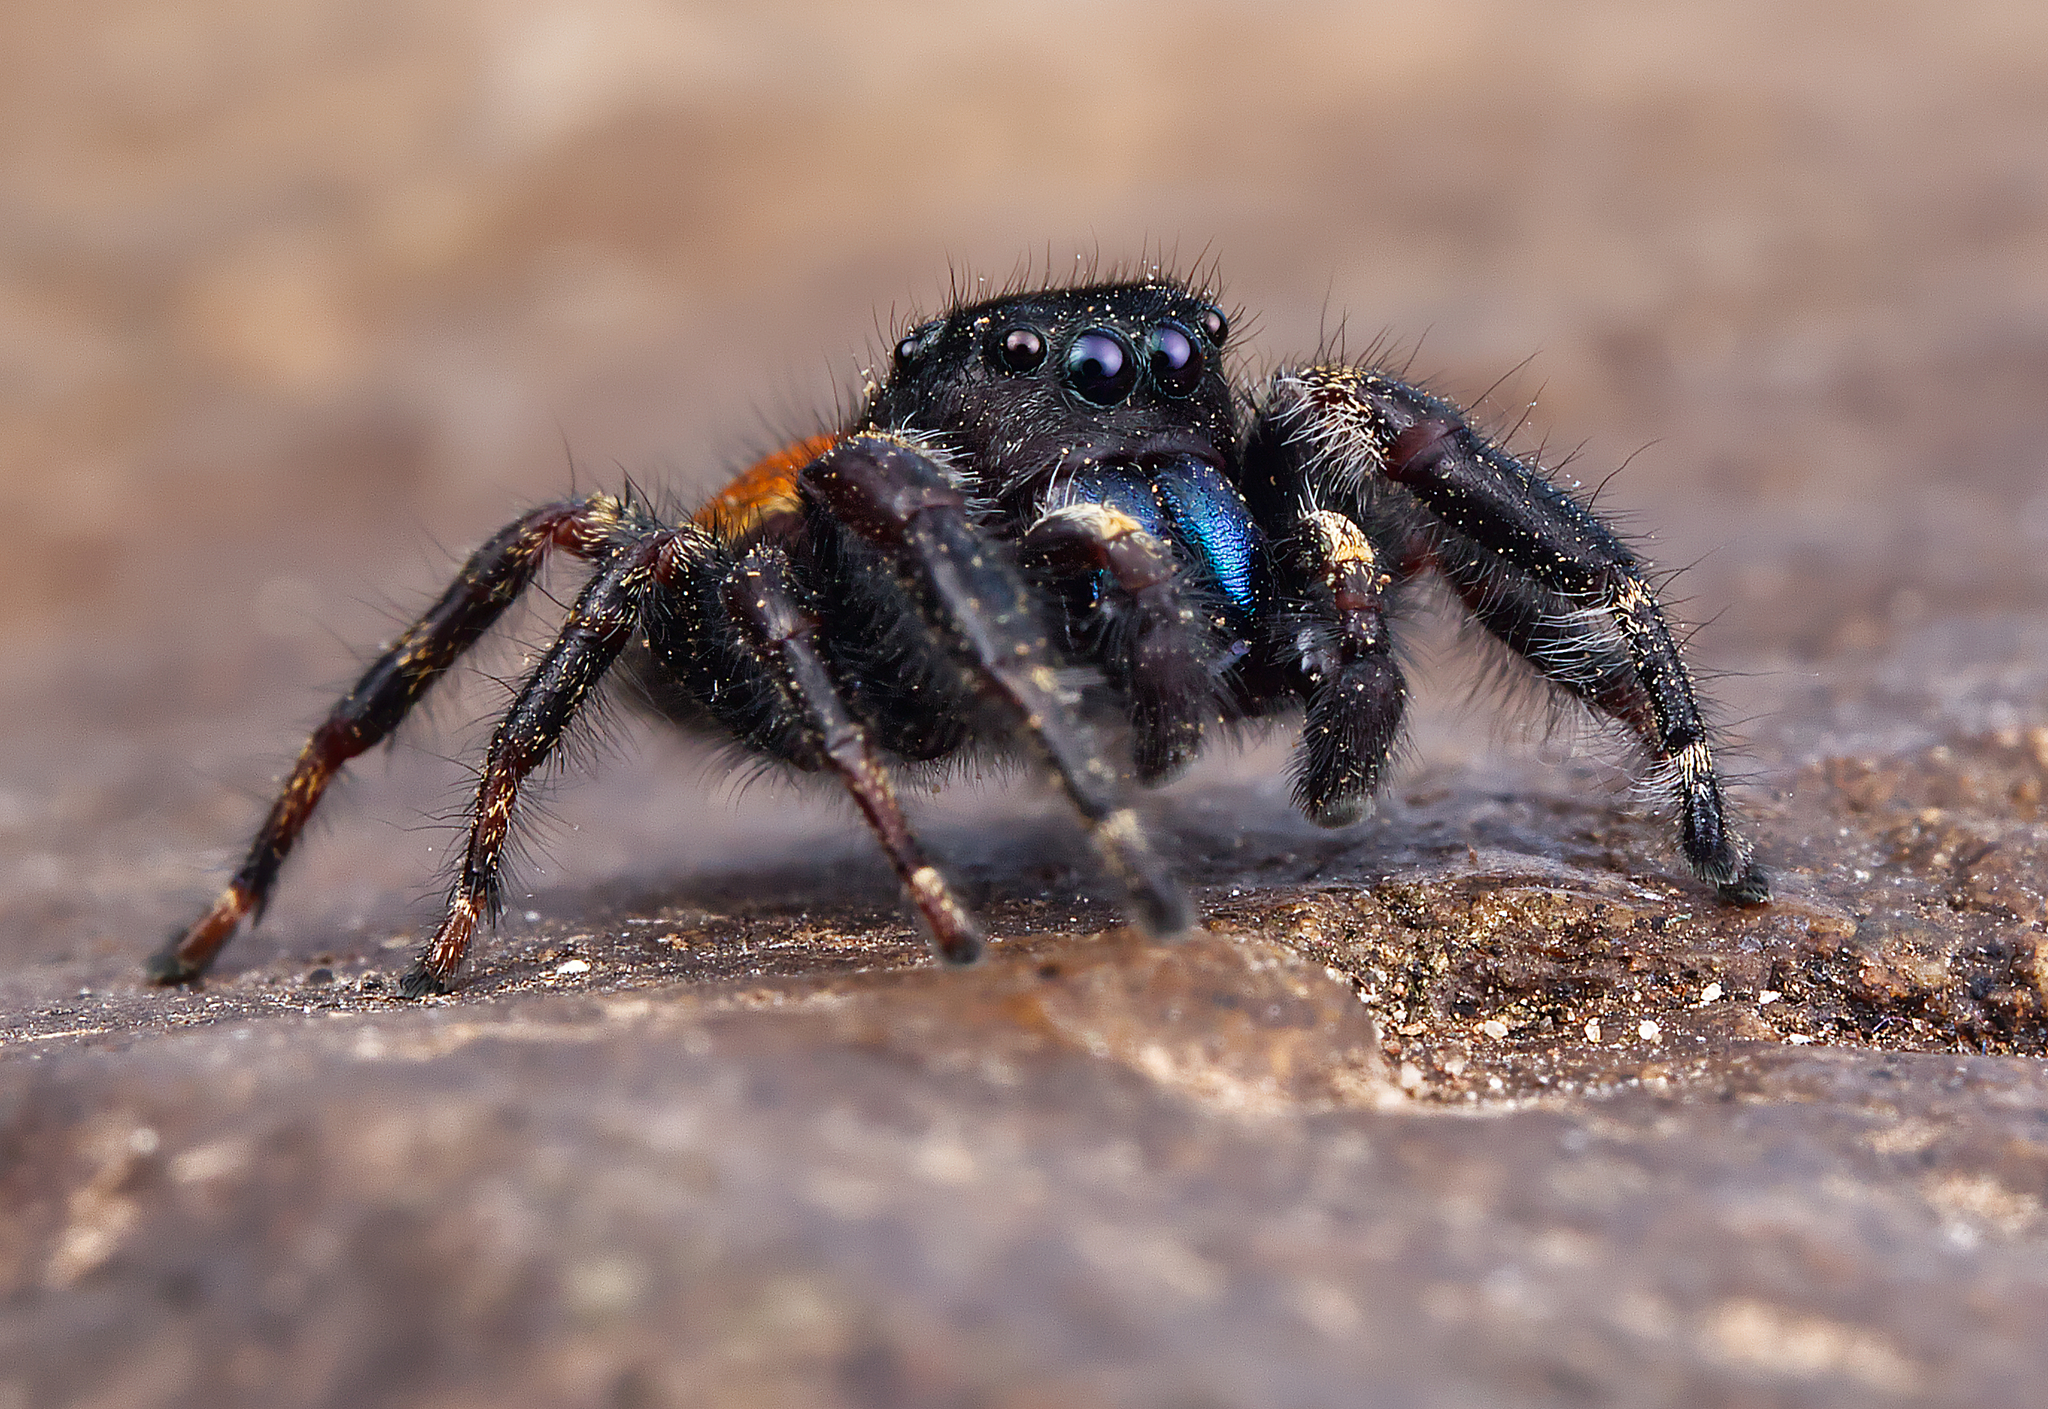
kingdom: Animalia
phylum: Arthropoda
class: Arachnida
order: Araneae
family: Salticidae
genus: Phidippus
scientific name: Phidippus princeps
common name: Grayish jumping spider
